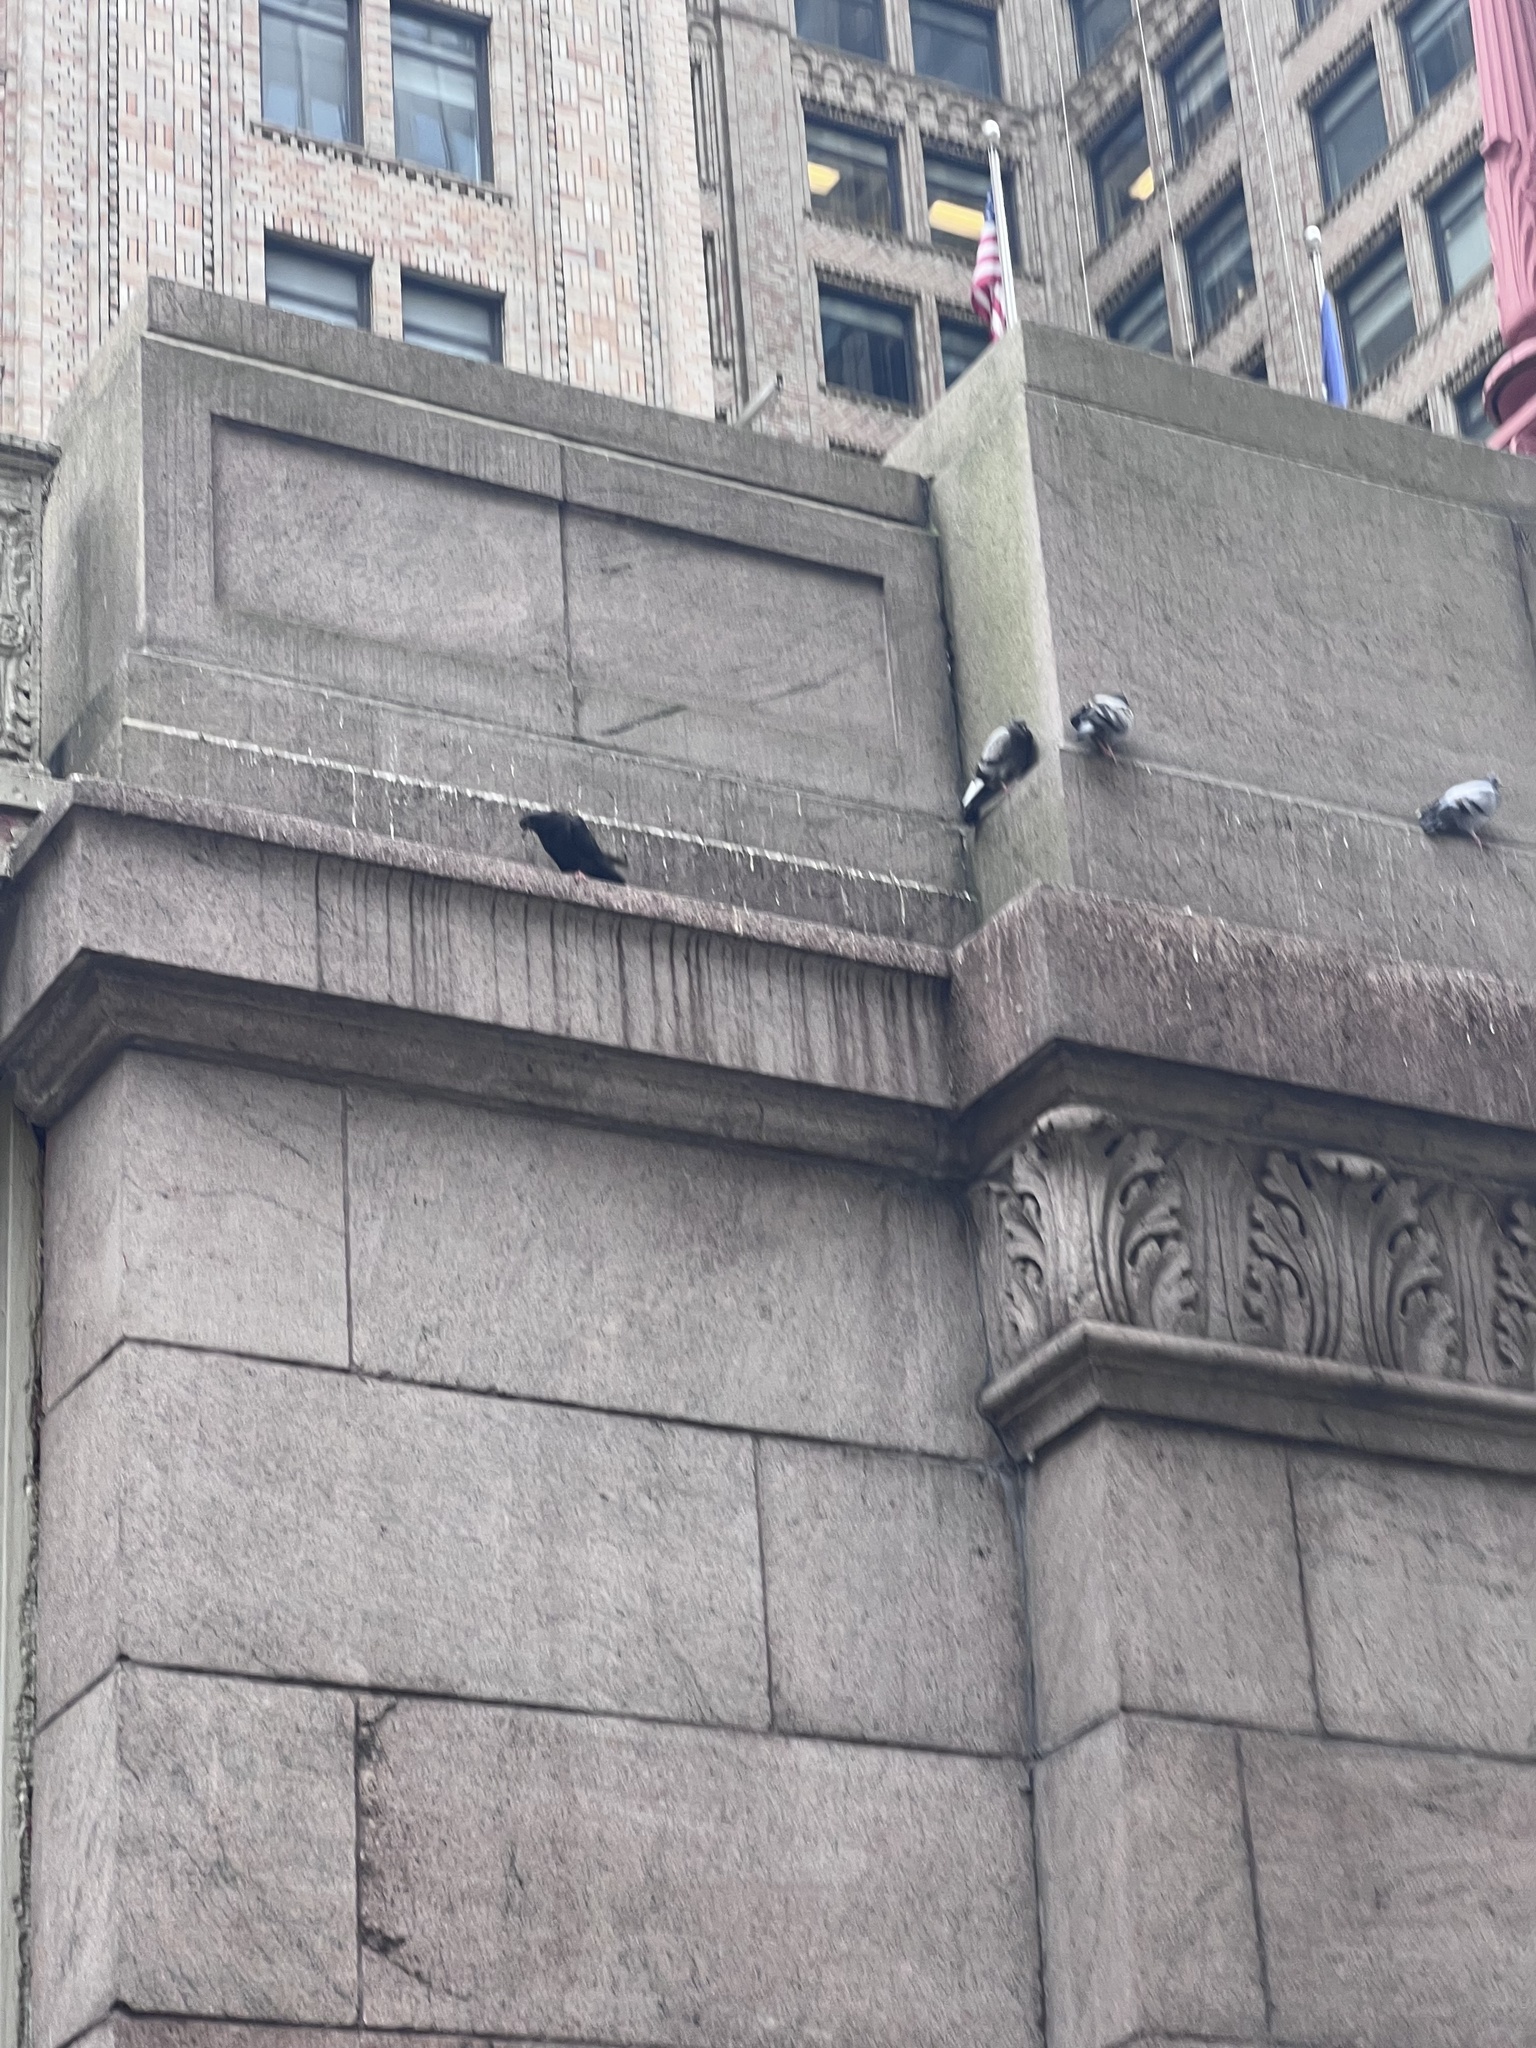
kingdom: Animalia
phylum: Chordata
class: Aves
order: Columbiformes
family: Columbidae
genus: Columba
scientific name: Columba livia
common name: Rock pigeon
